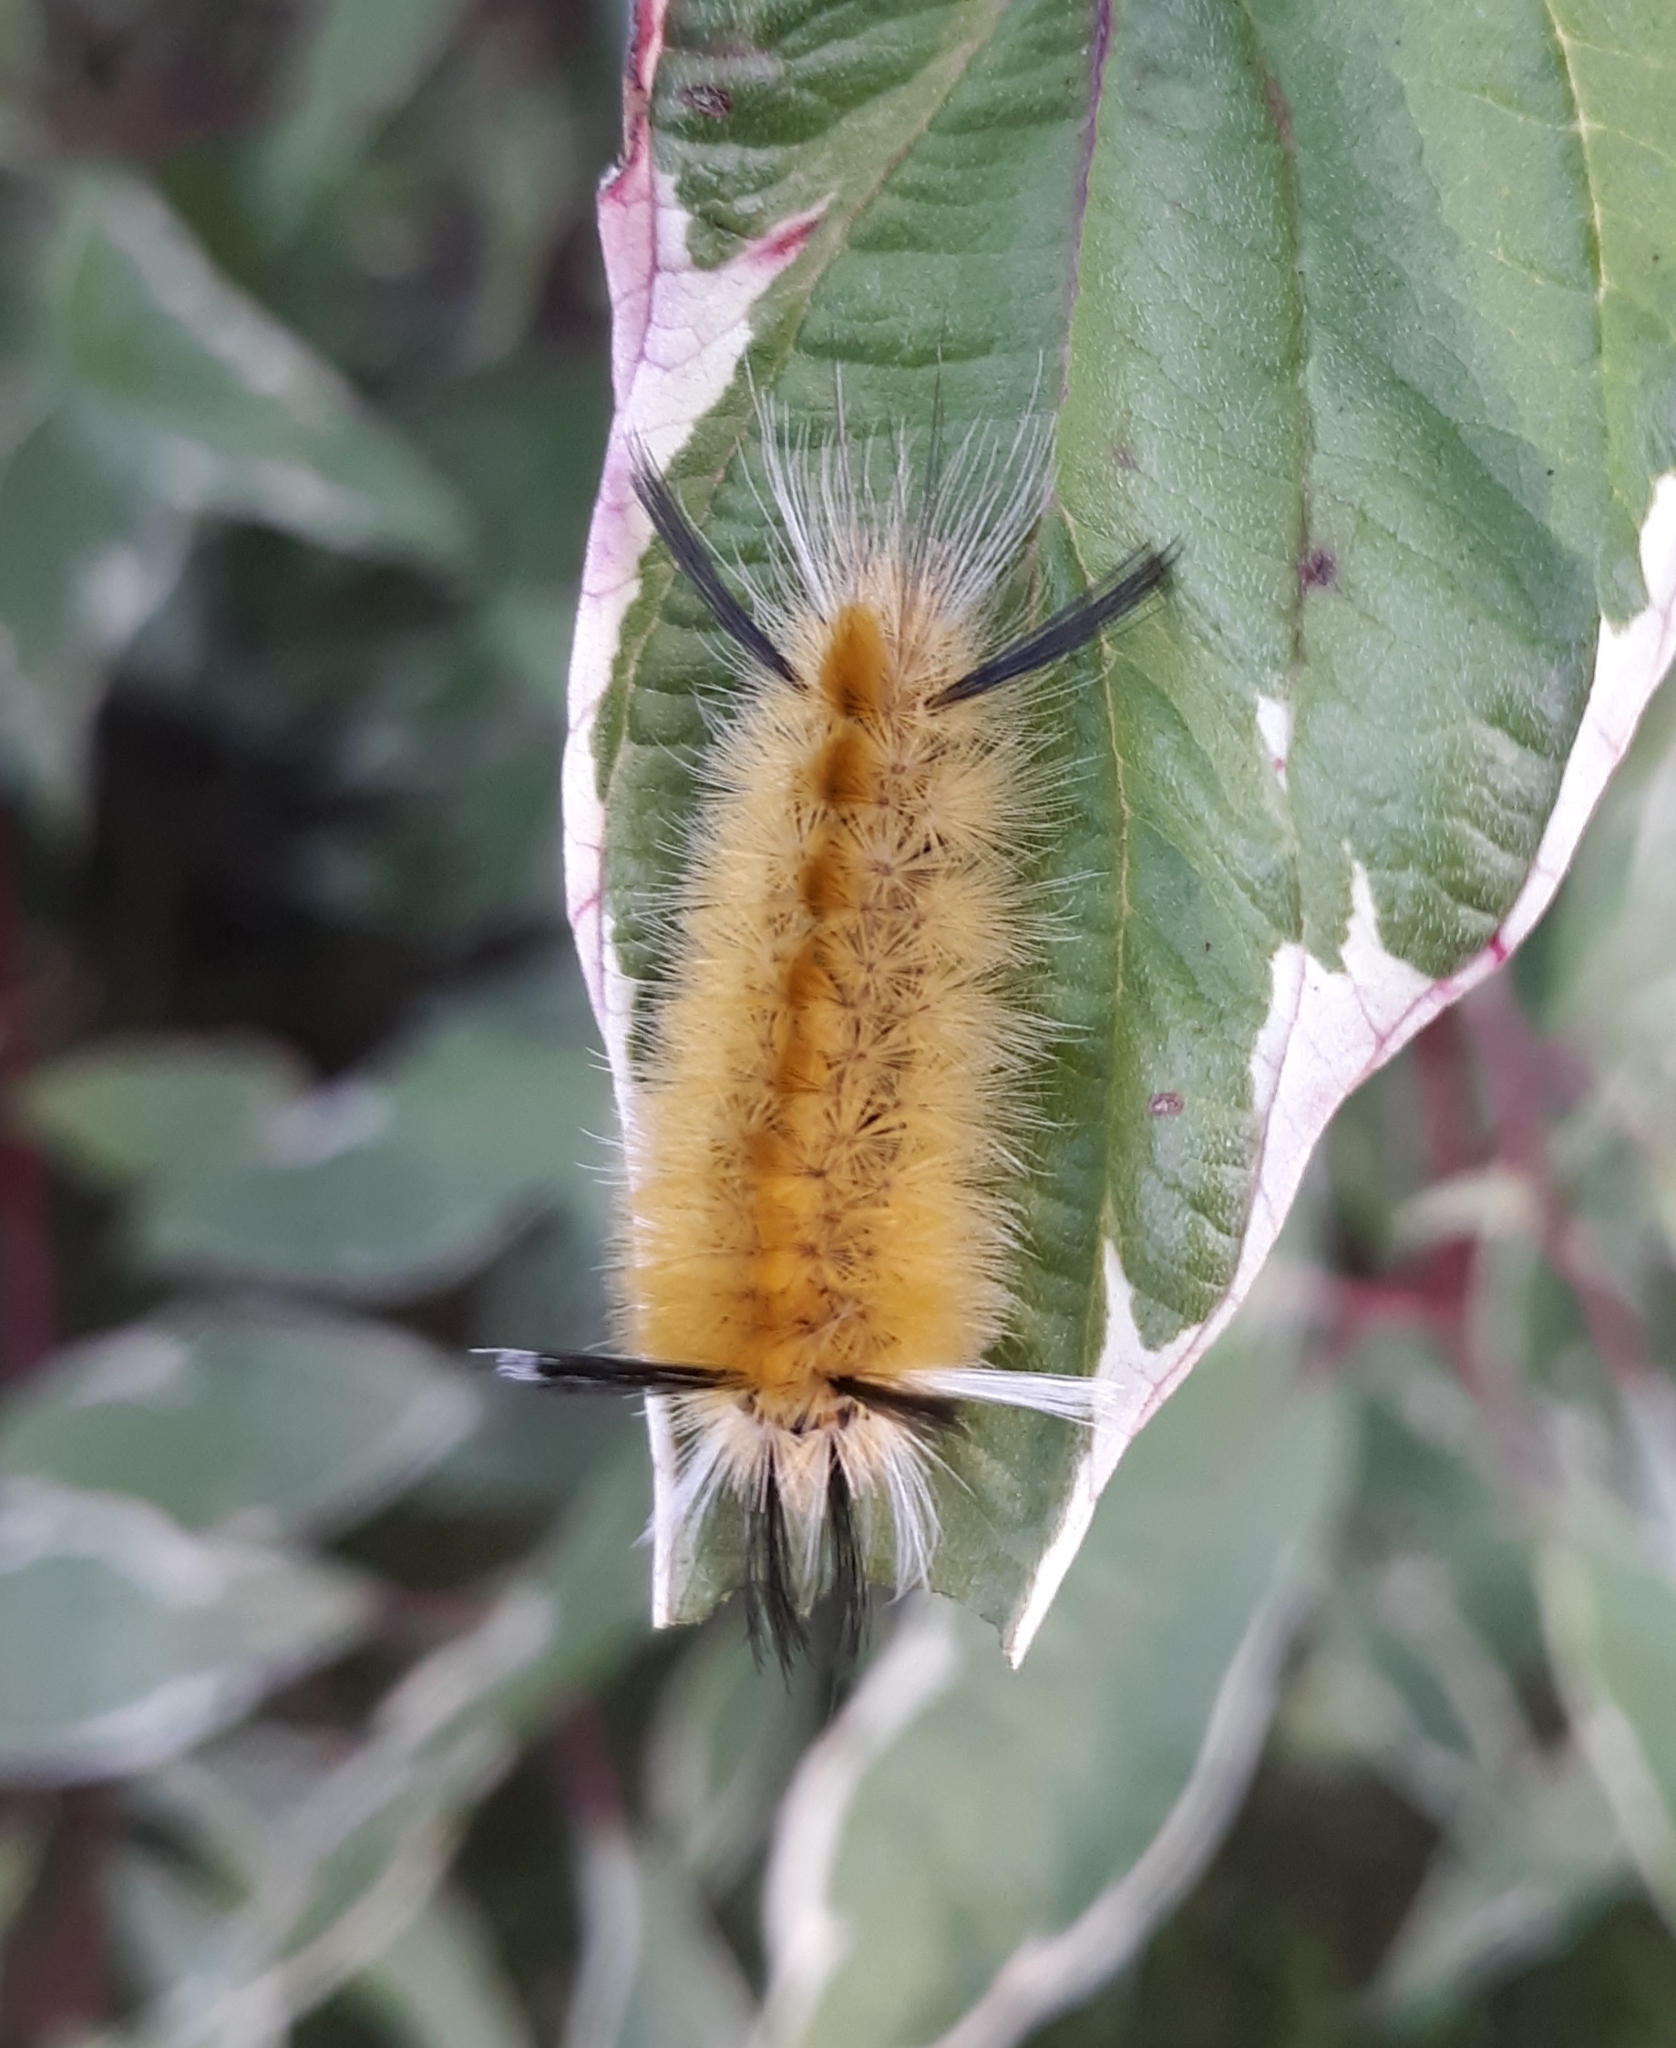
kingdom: Animalia
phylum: Arthropoda
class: Insecta
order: Lepidoptera
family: Erebidae
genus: Halysidota
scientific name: Halysidota tessellaris
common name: Banded tussock moth
